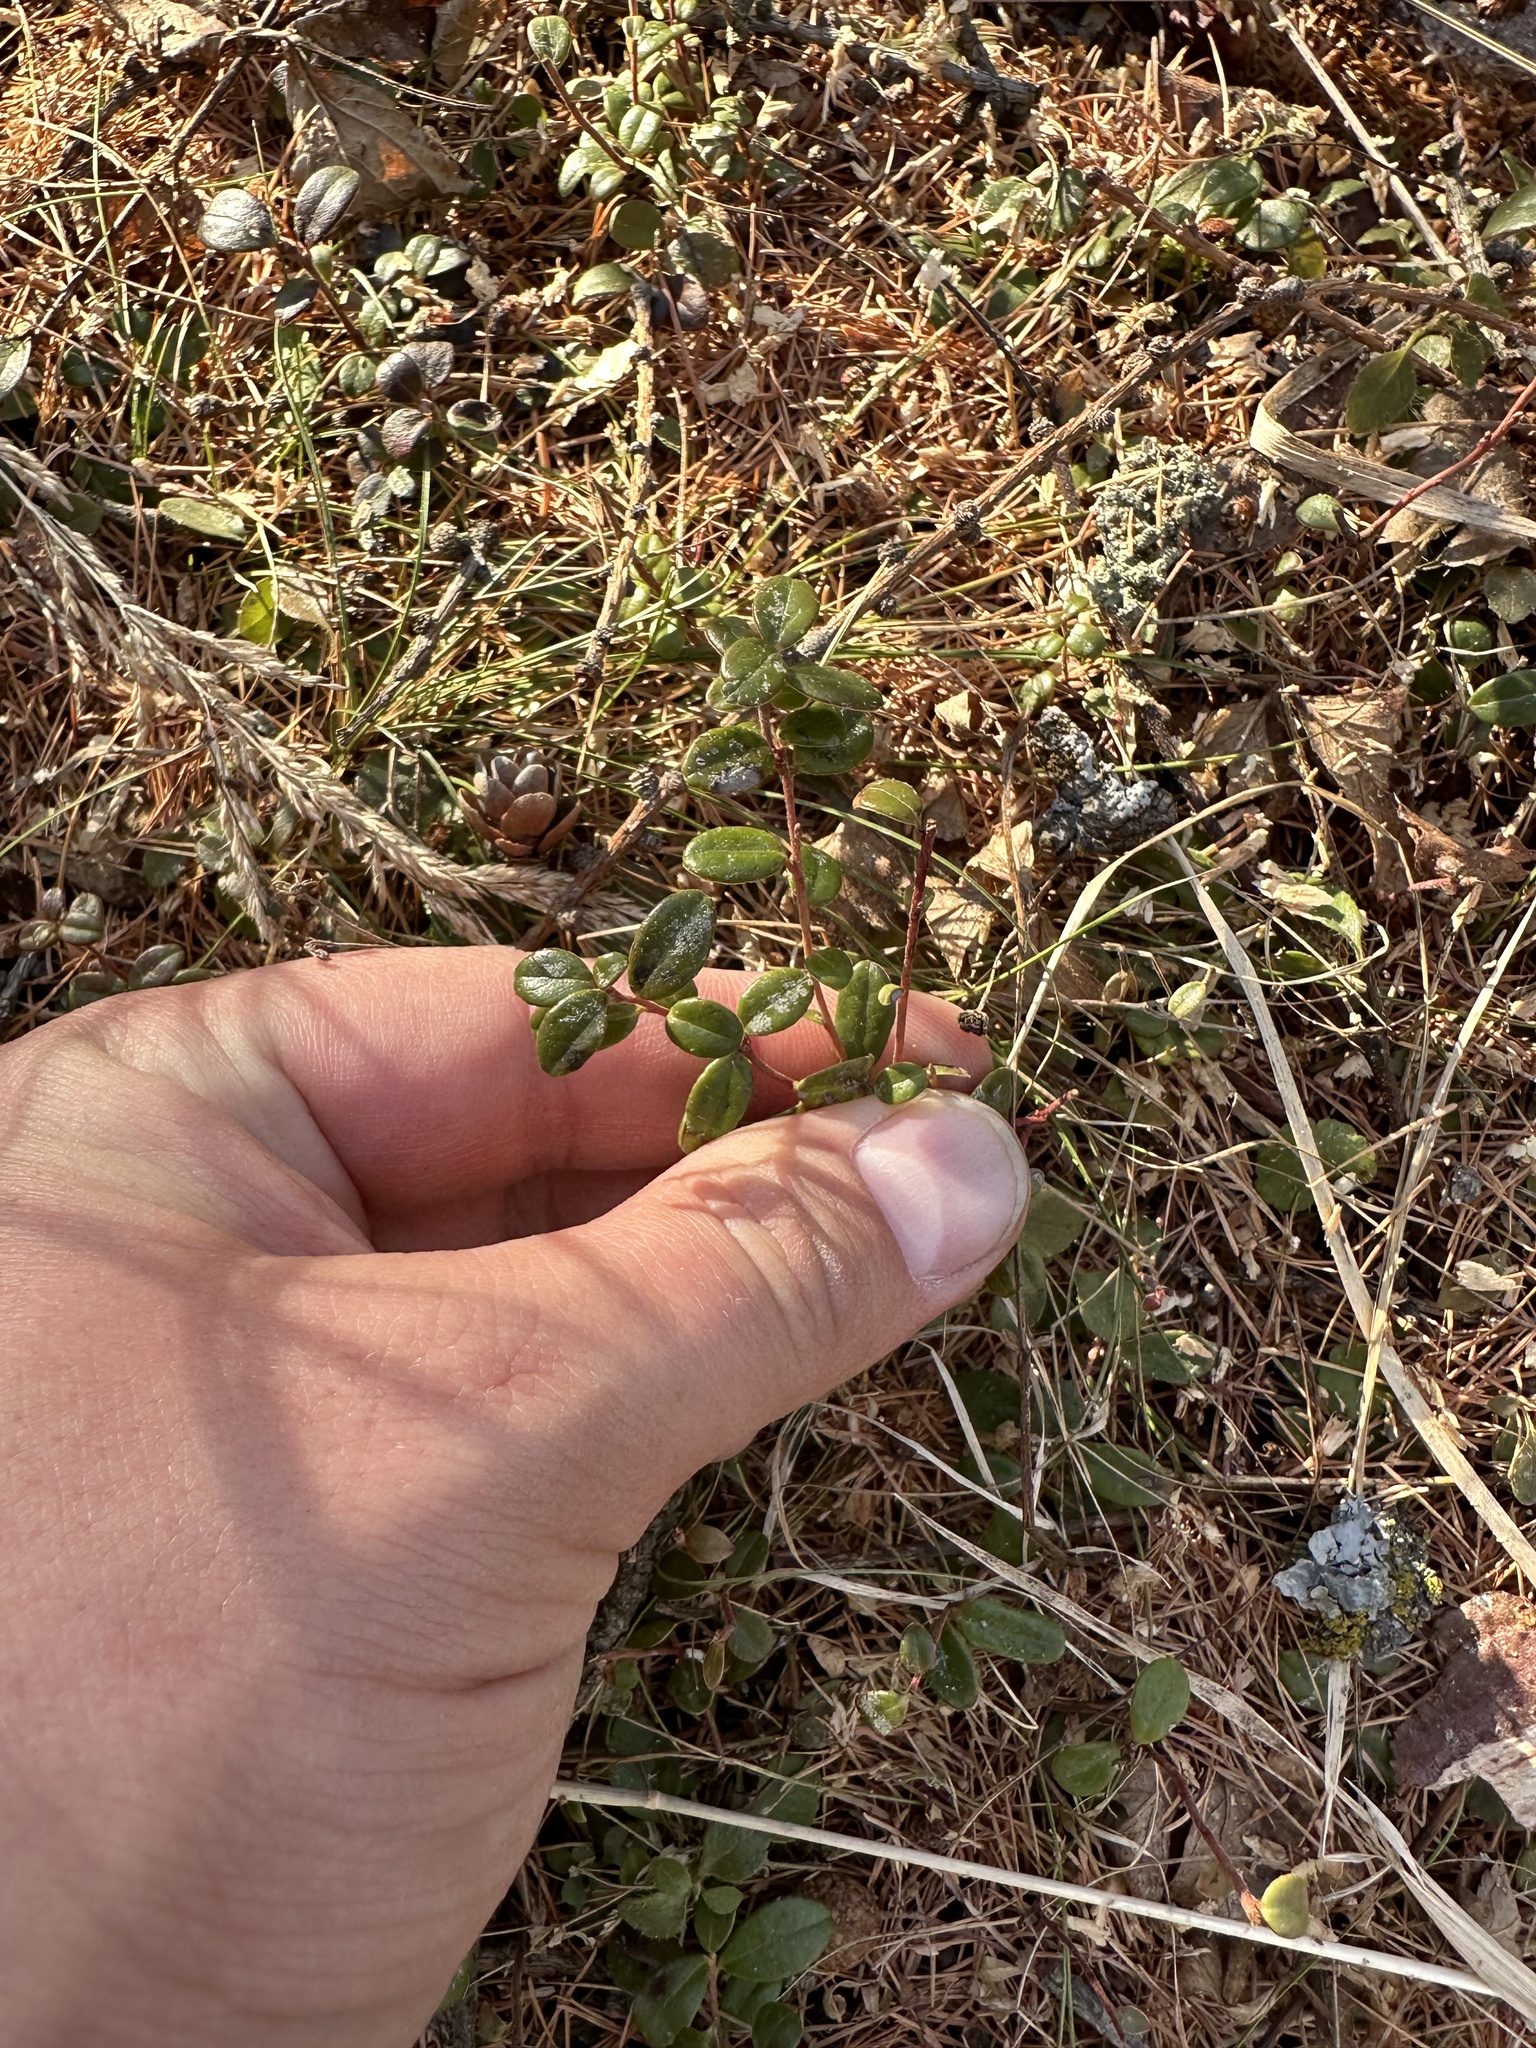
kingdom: Plantae
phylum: Tracheophyta
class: Magnoliopsida
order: Ericales
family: Ericaceae
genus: Vaccinium
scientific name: Vaccinium vitis-idaea
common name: Cowberry
